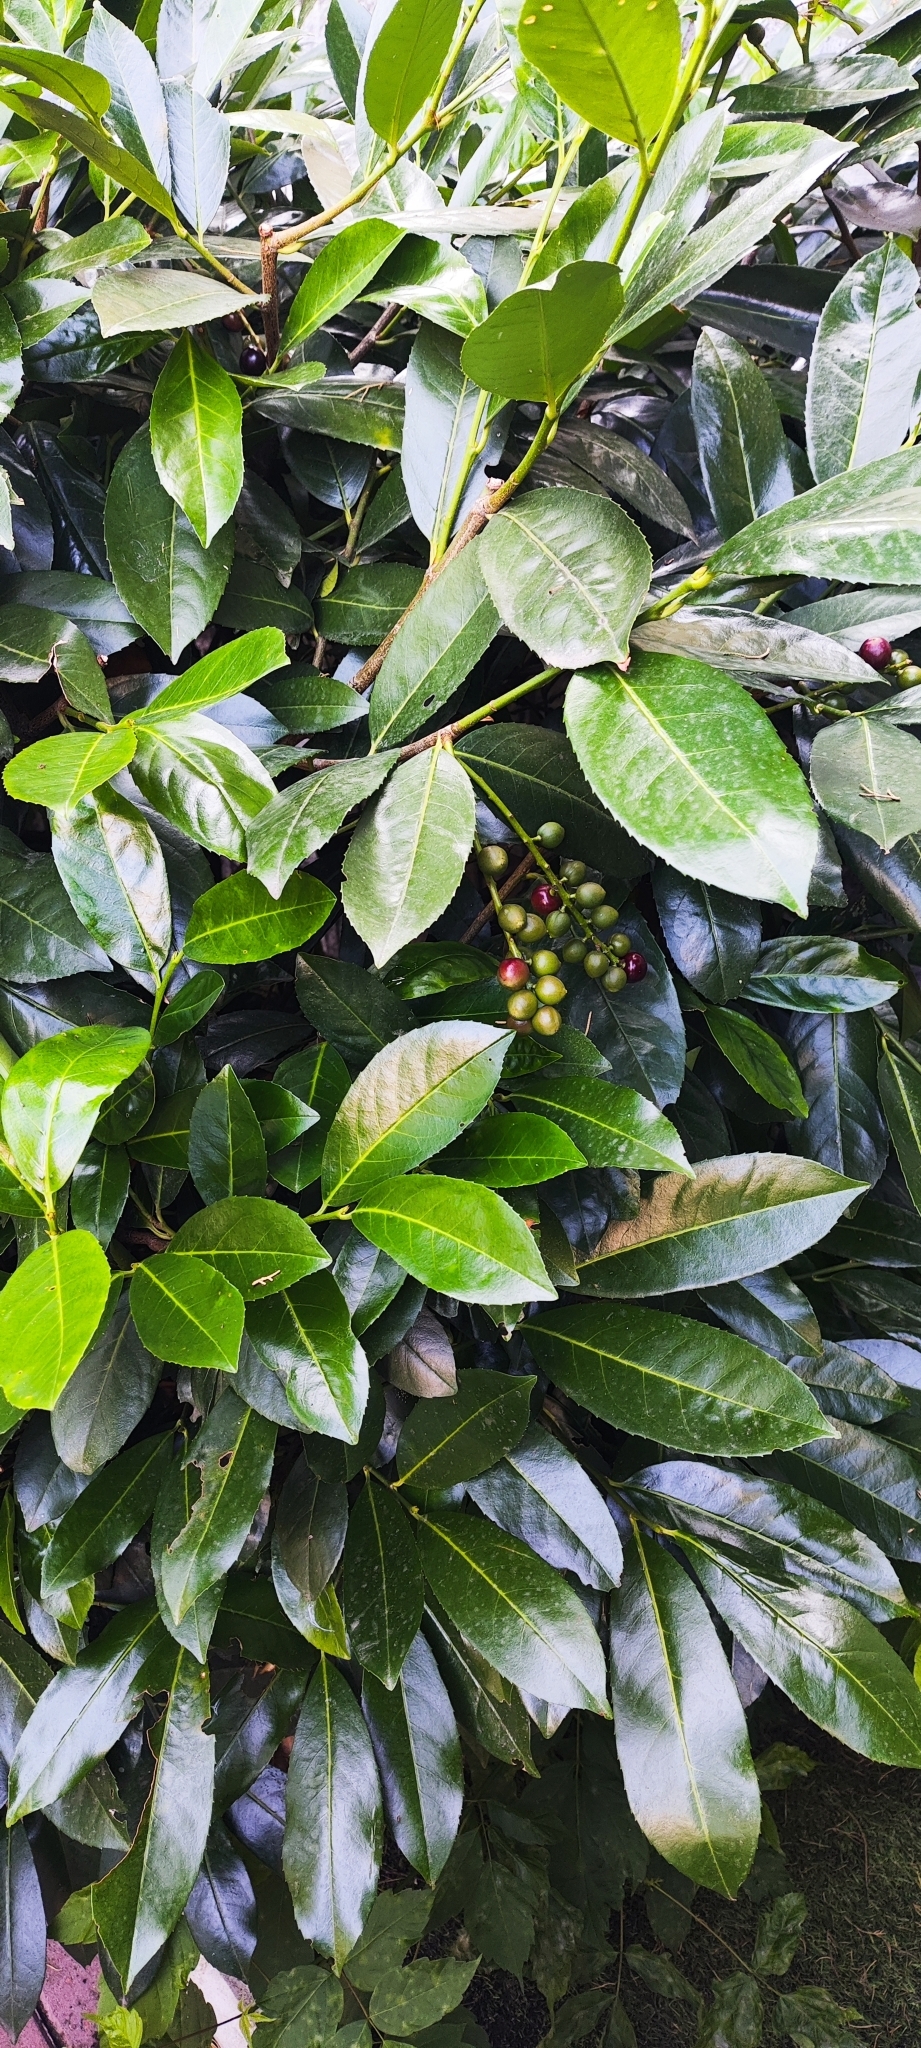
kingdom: Plantae
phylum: Tracheophyta
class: Magnoliopsida
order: Rosales
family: Rosaceae
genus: Prunus
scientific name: Prunus laurocerasus
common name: Cherry laurel
